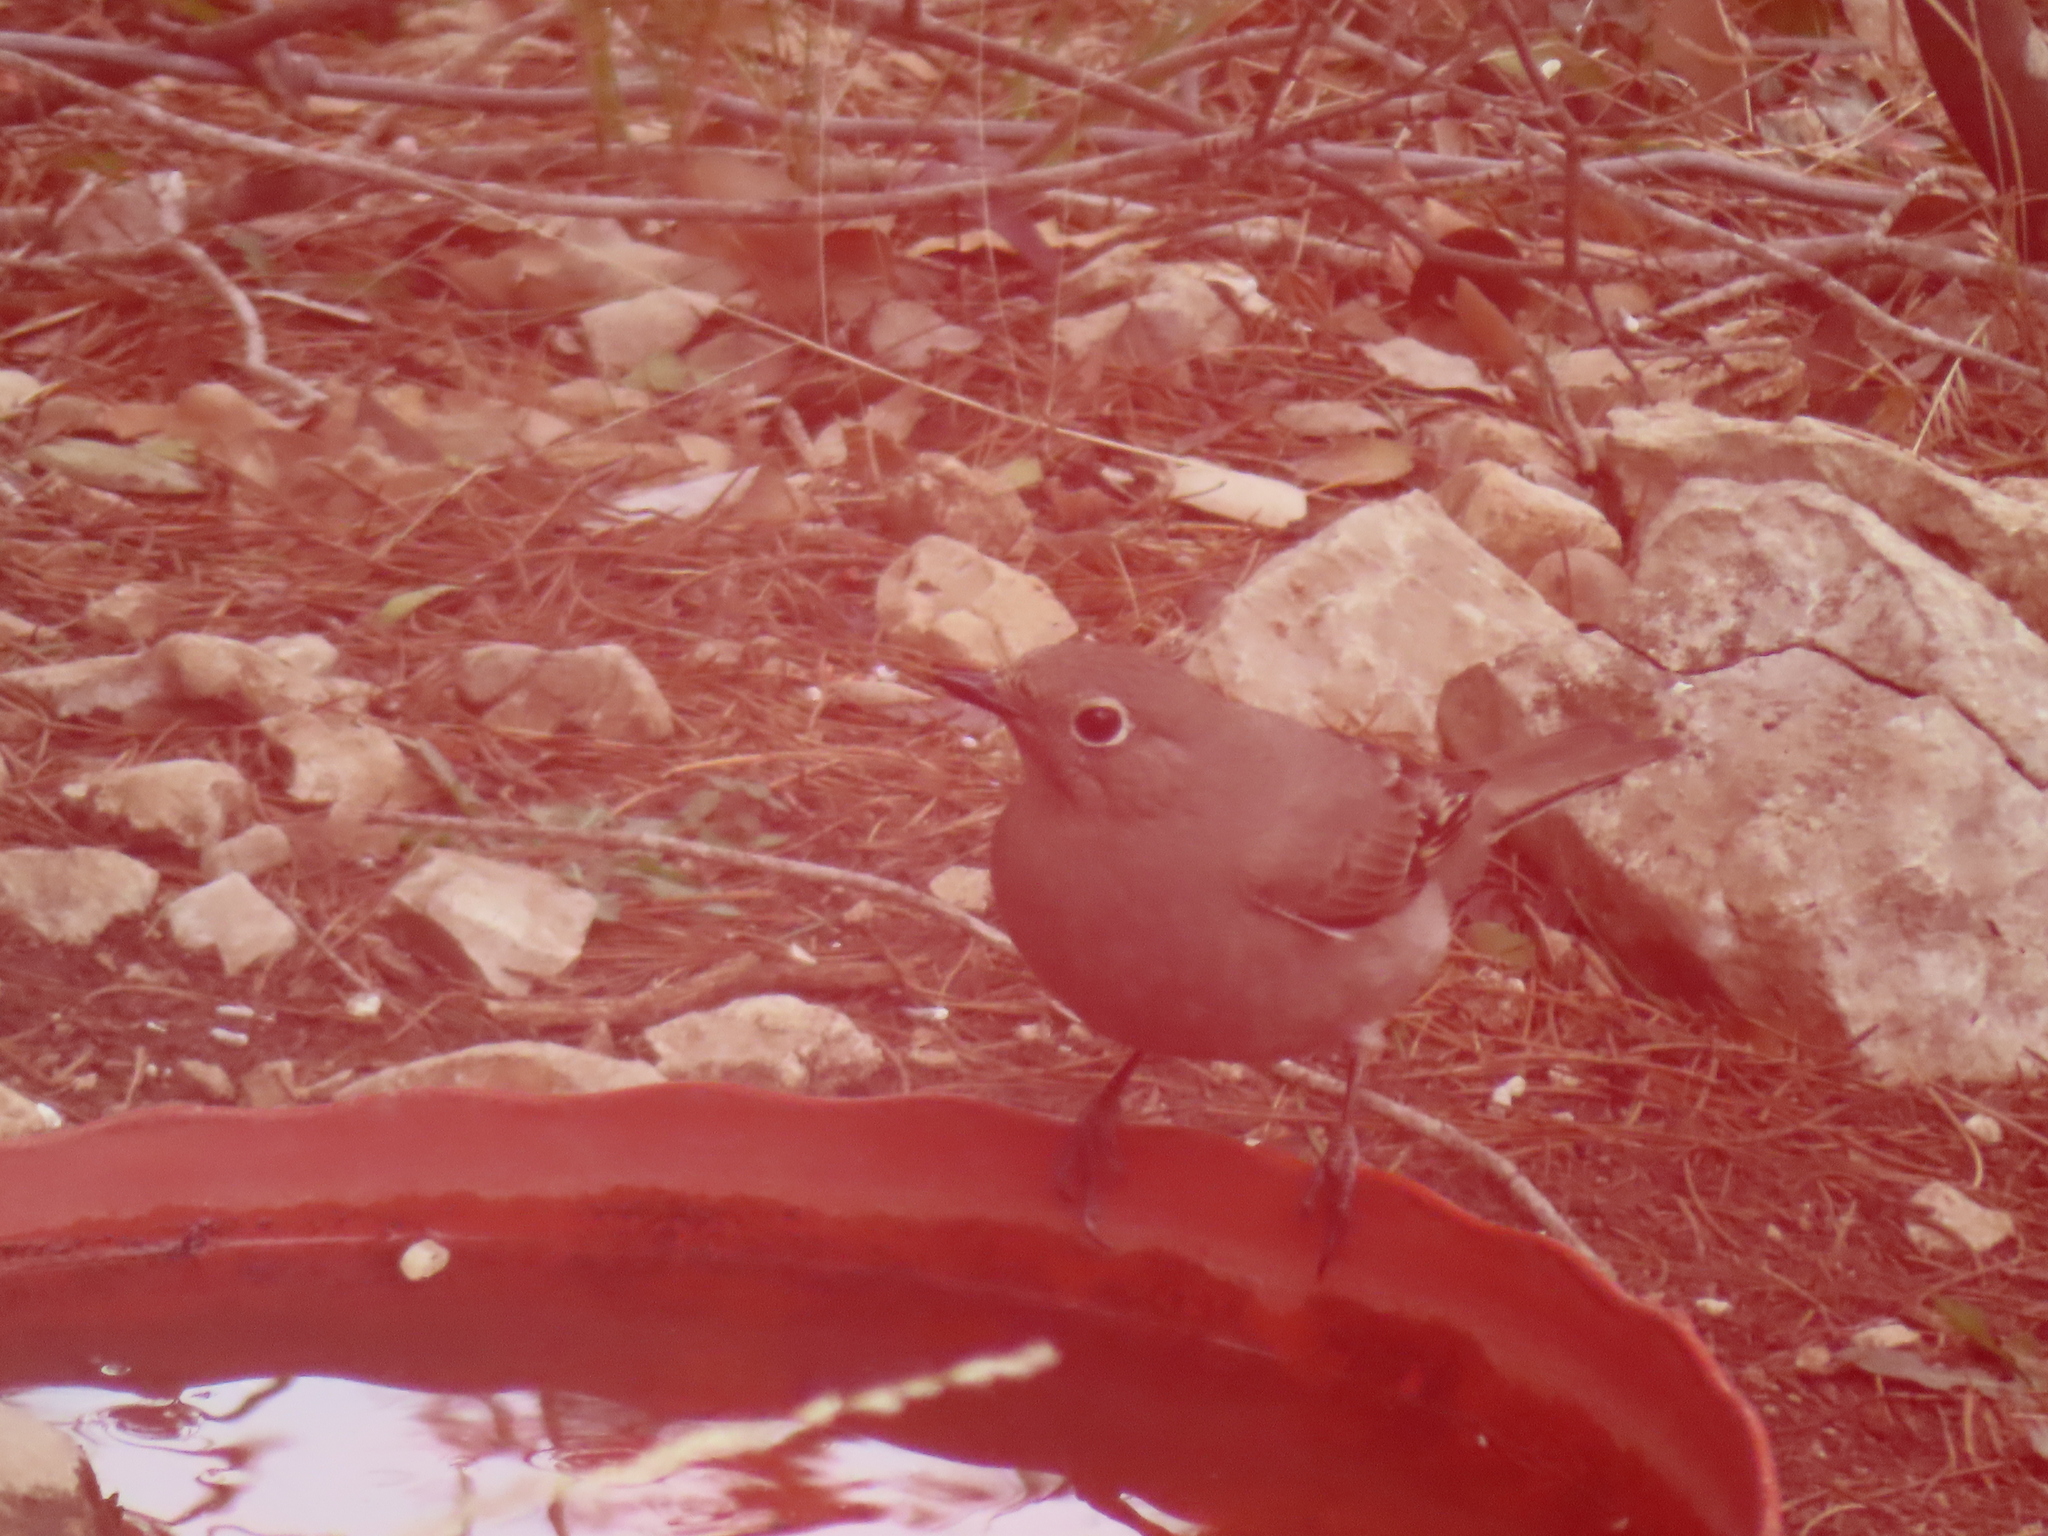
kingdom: Animalia
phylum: Chordata
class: Aves
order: Passeriformes
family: Turdidae
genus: Myadestes
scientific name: Myadestes townsendi
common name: Townsend's solitaire
